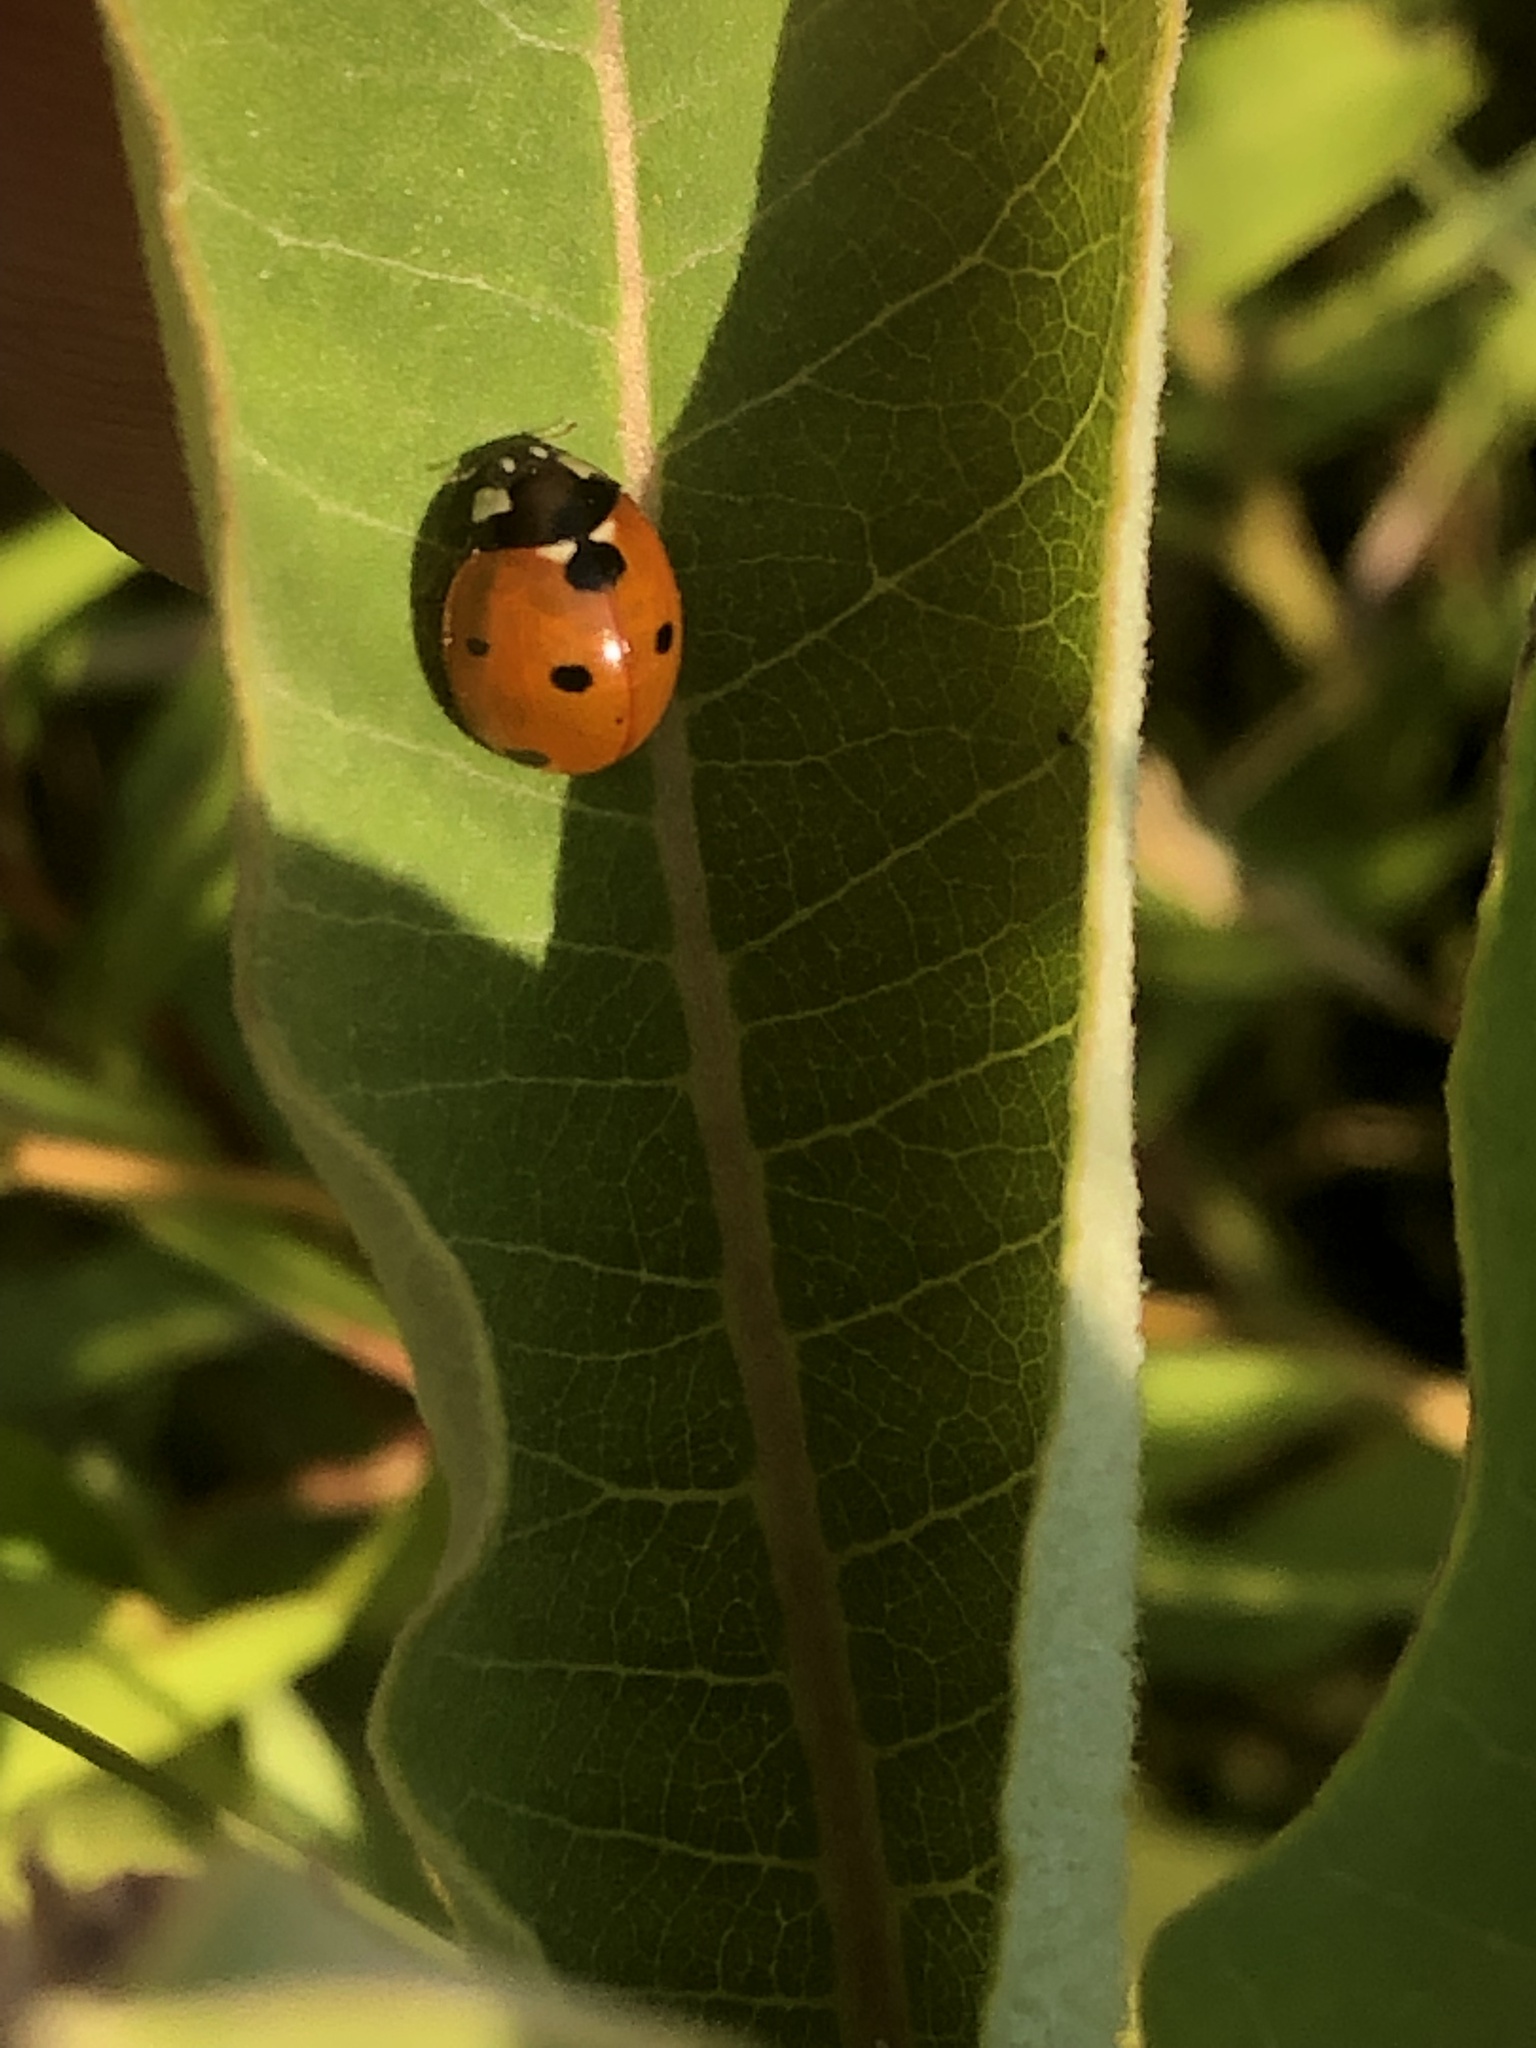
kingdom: Animalia
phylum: Arthropoda
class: Insecta
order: Coleoptera
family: Coccinellidae
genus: Coccinella
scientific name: Coccinella septempunctata
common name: Sevenspotted lady beetle
